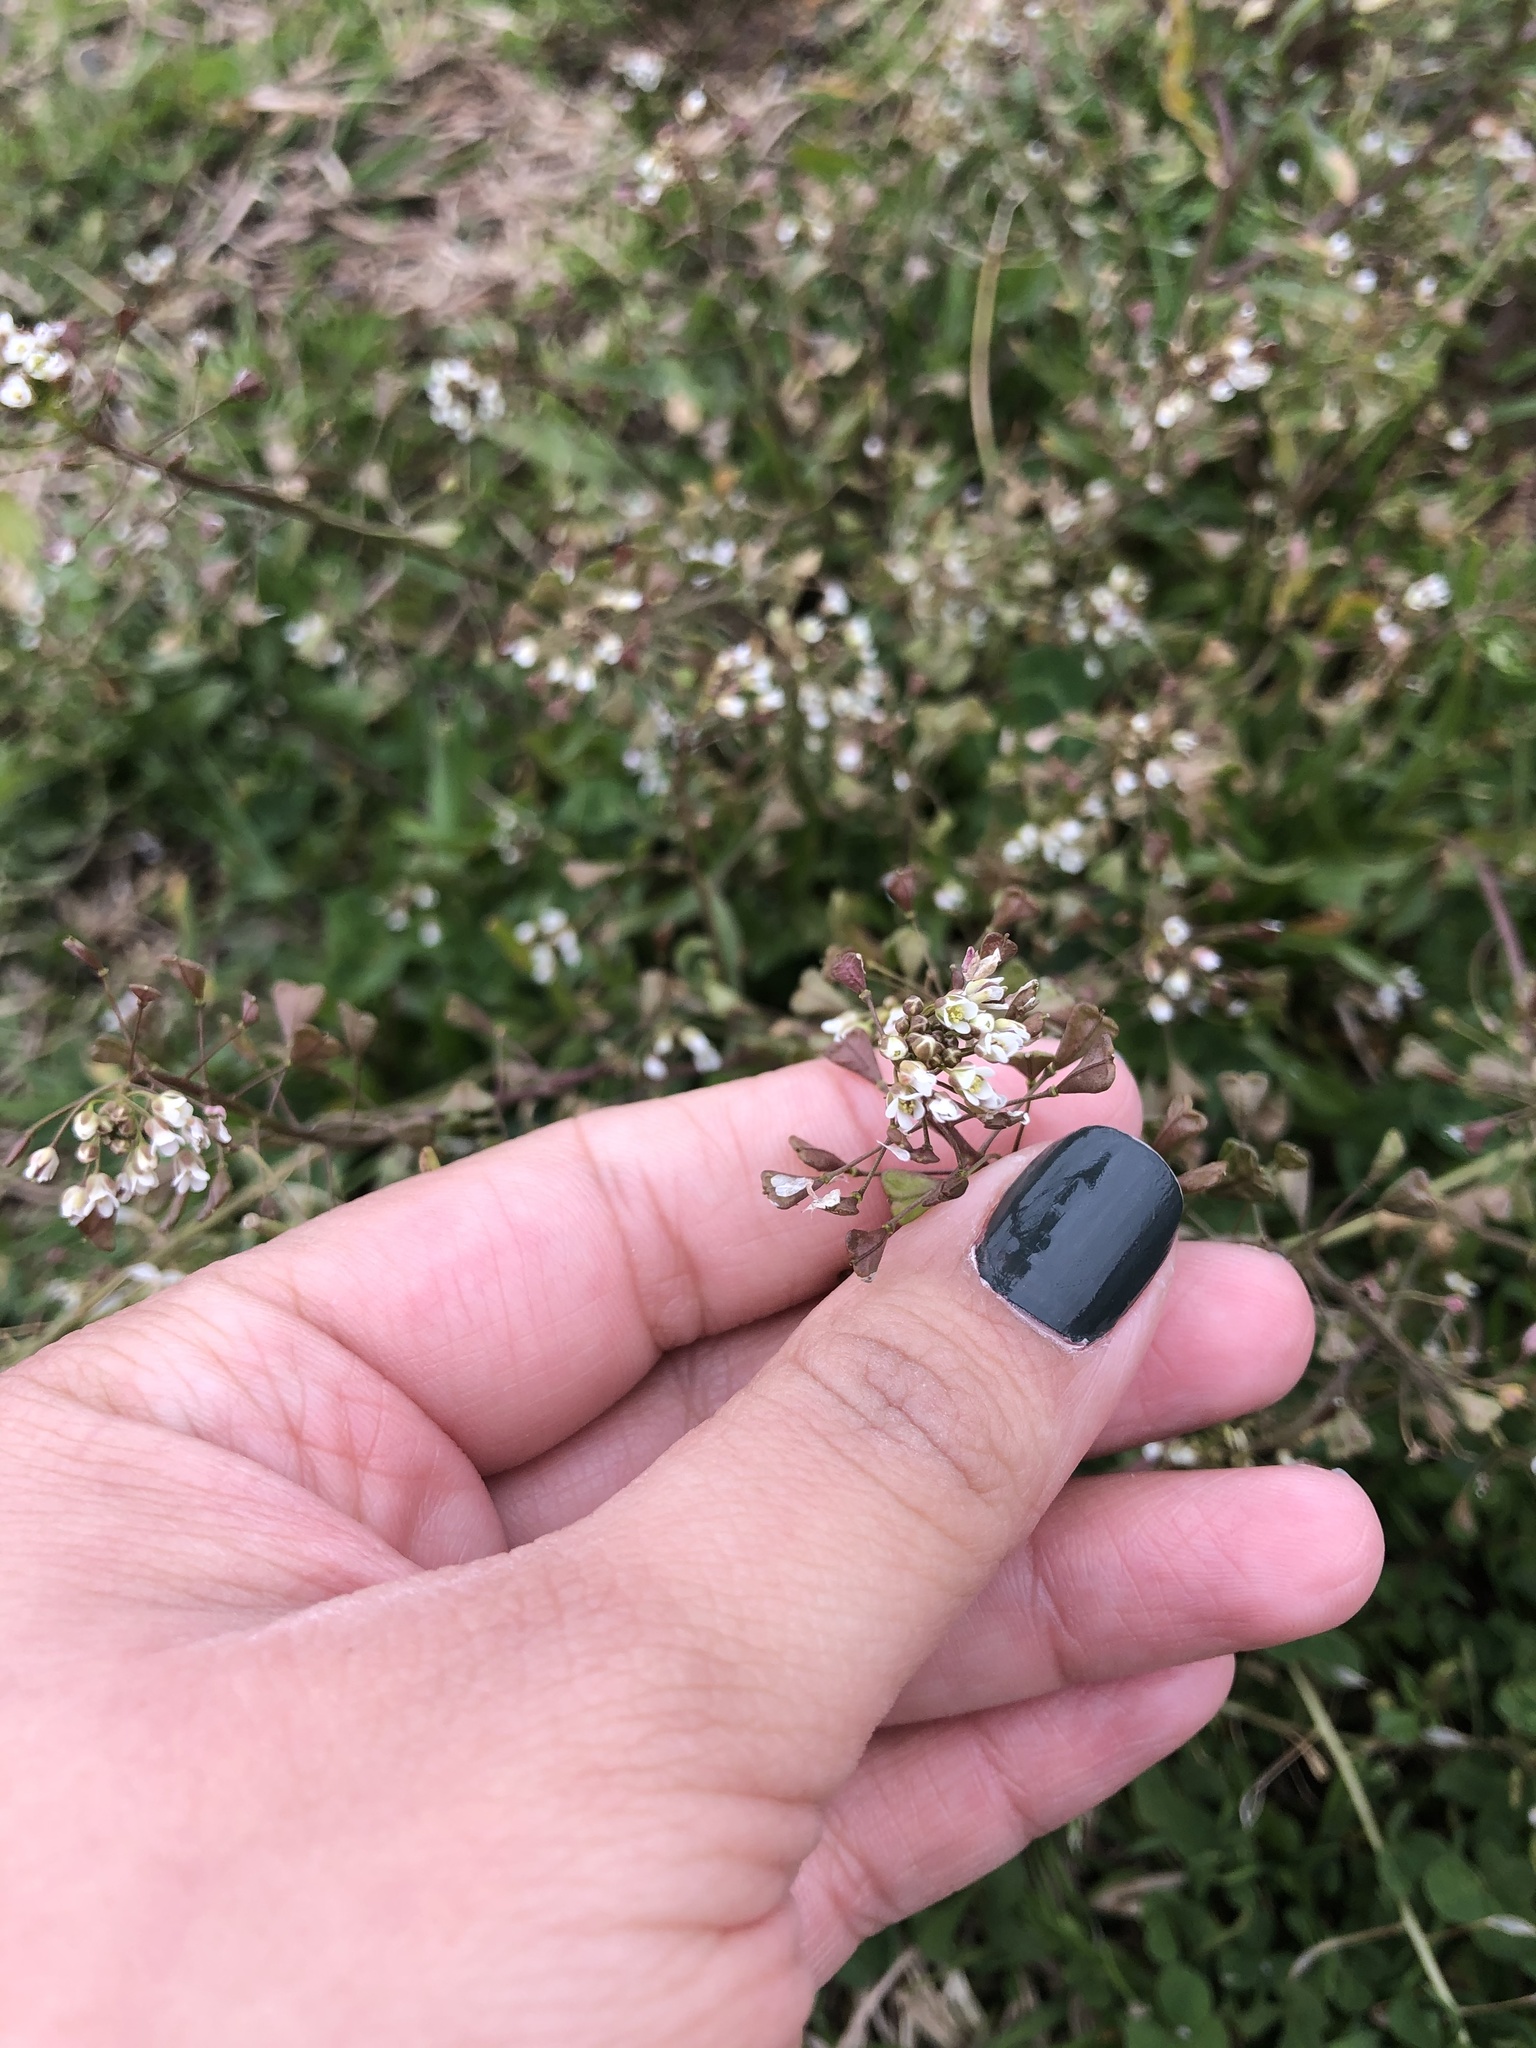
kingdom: Plantae
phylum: Tracheophyta
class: Magnoliopsida
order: Brassicales
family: Brassicaceae
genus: Capsella
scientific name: Capsella bursa-pastoris
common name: Shepherd's purse
